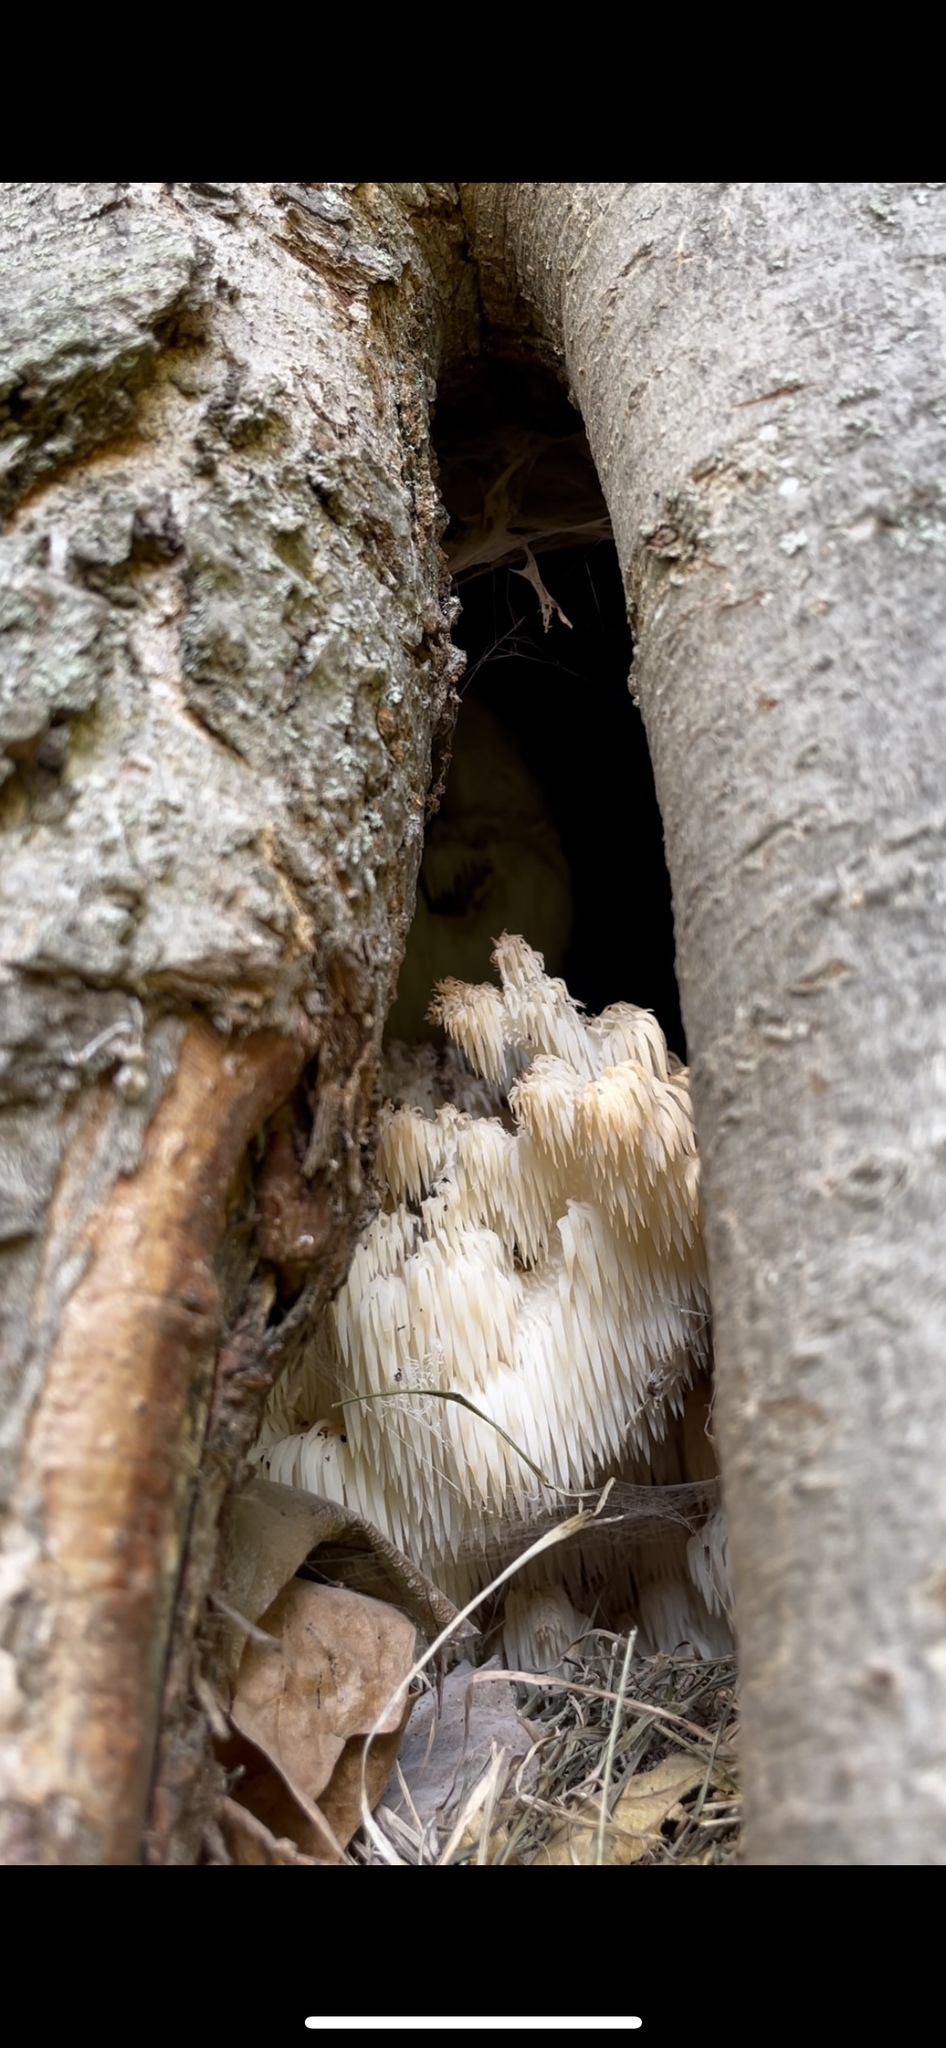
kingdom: Fungi
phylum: Basidiomycota
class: Agaricomycetes
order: Russulales
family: Hericiaceae
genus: Hericium
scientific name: Hericium americanum
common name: Bear's head tooth
